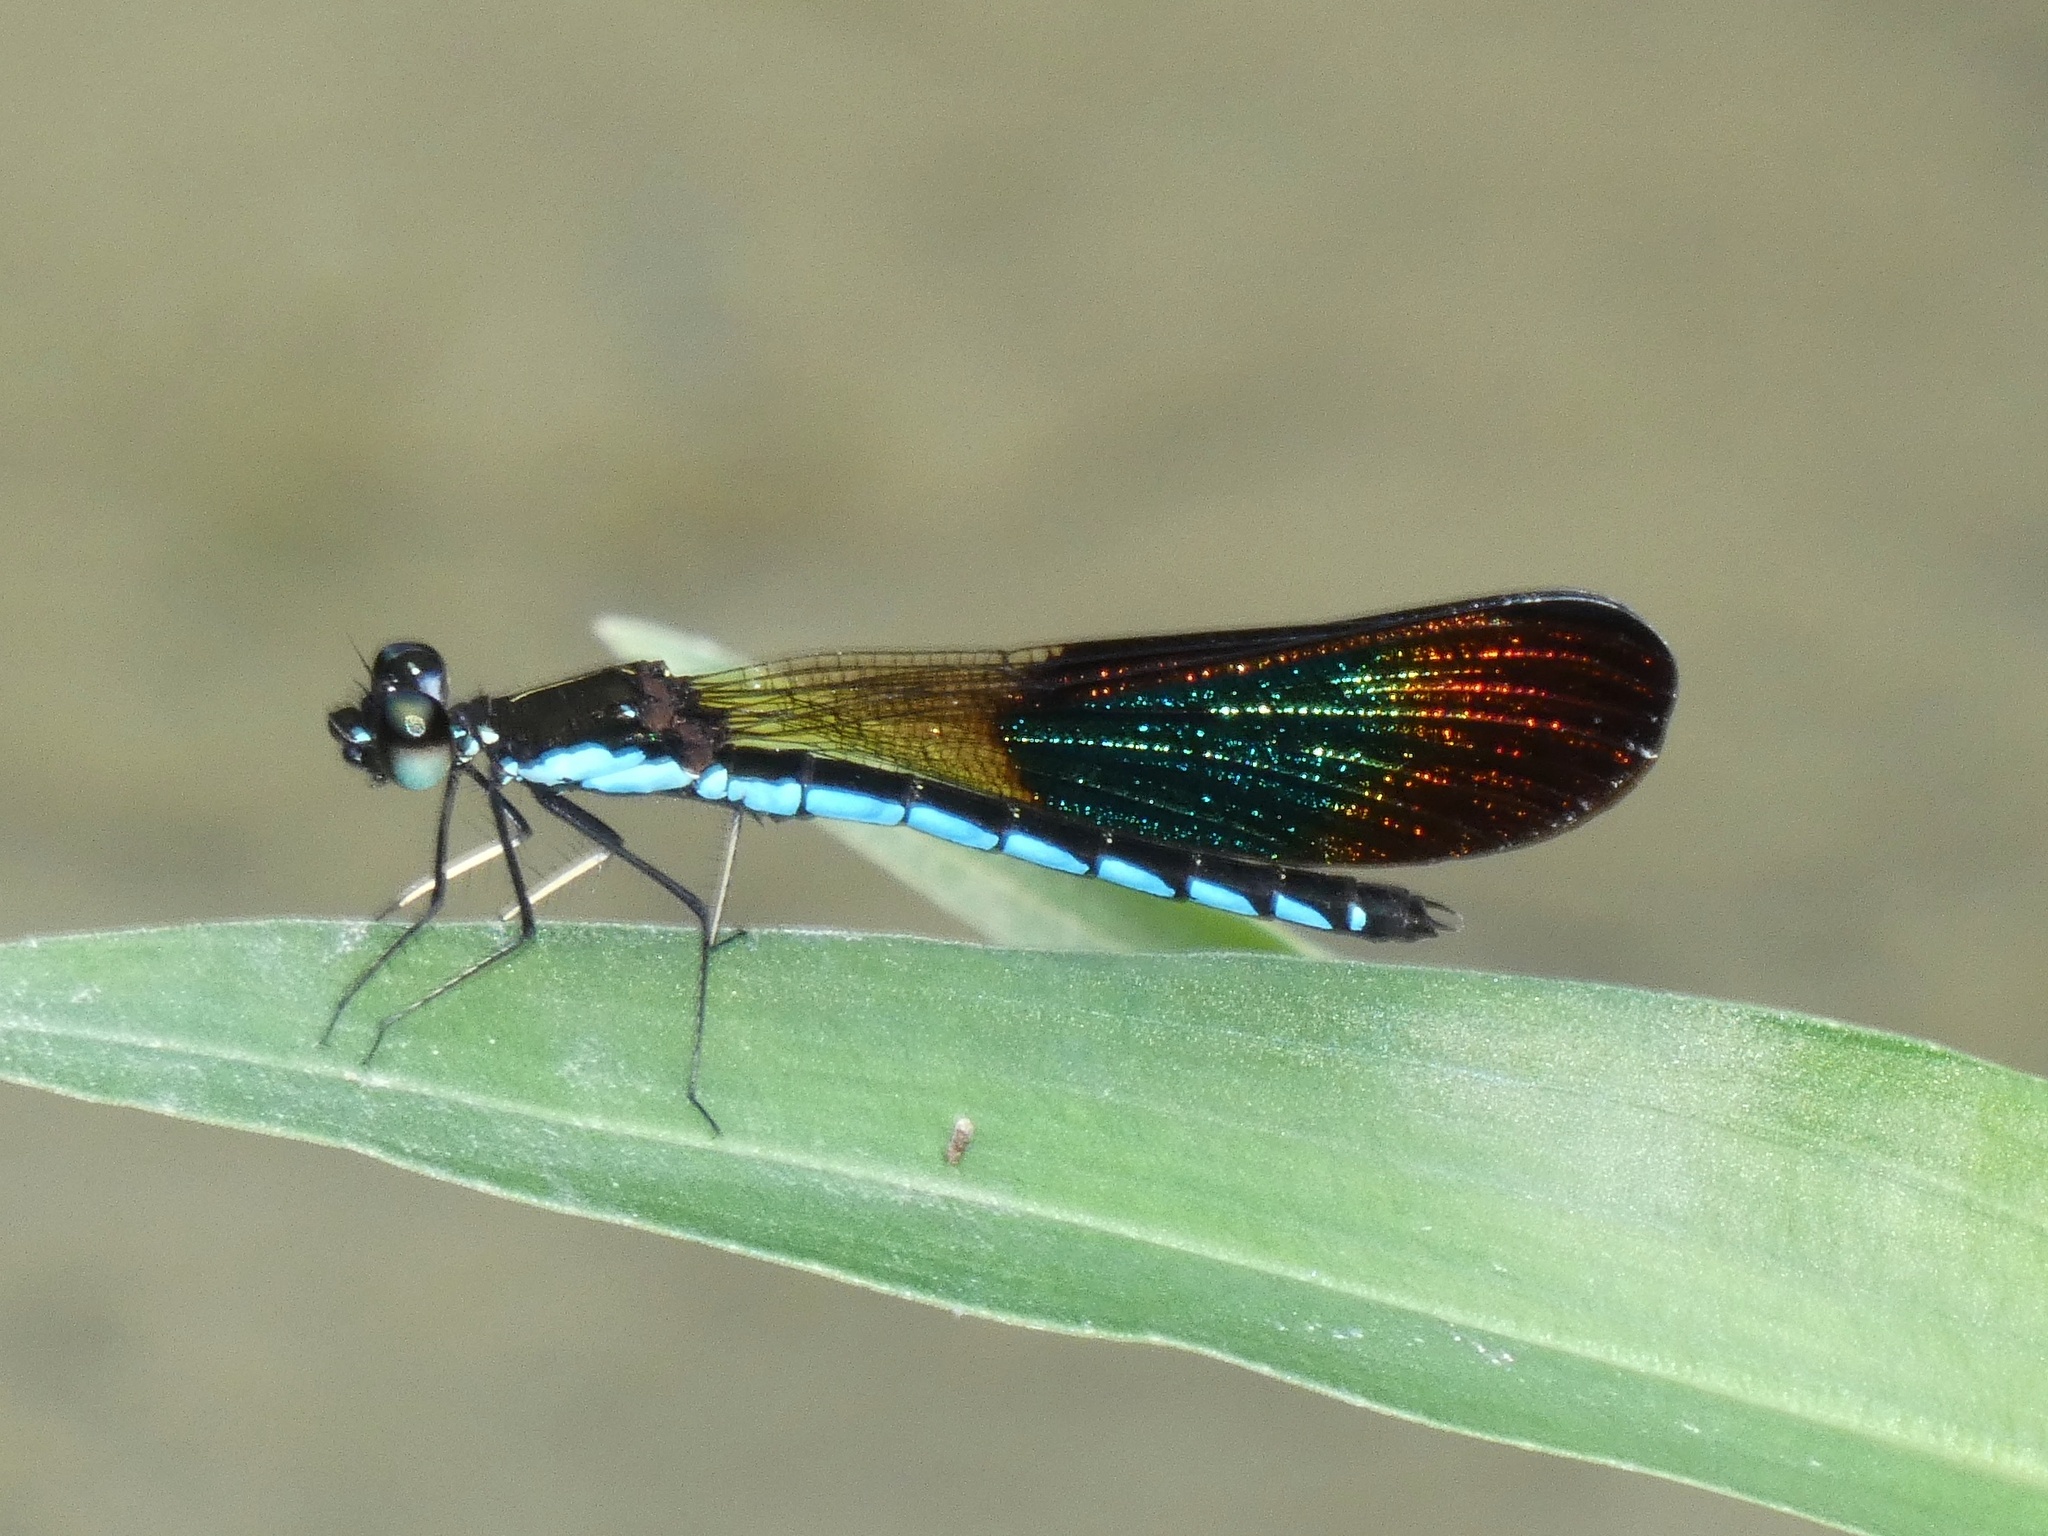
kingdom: Animalia
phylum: Arthropoda
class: Insecta
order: Odonata
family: Chlorocyphidae
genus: Rhinocypha
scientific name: Rhinocypha colorata
